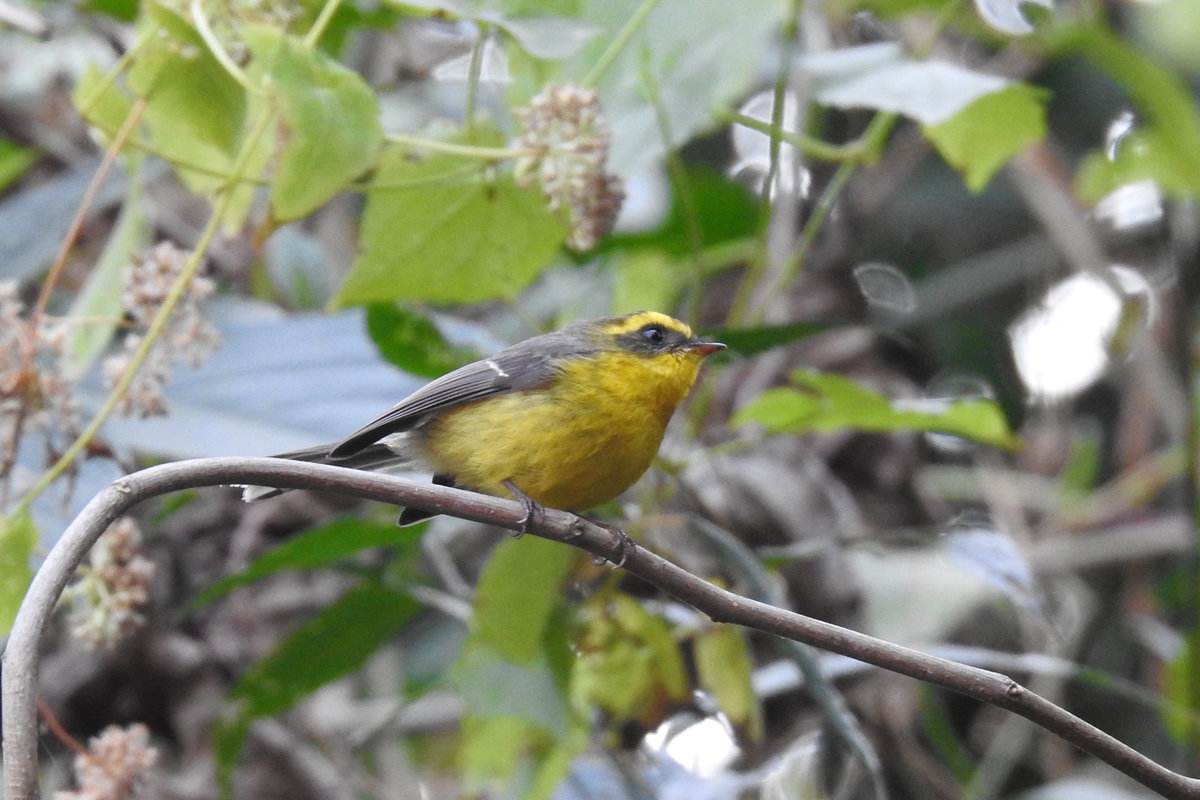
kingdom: Animalia
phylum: Chordata
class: Aves
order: Passeriformes
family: Stenostiridae
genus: Chelidorhynx
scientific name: Chelidorhynx hypoxantha
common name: Yellow-bellied fantail
